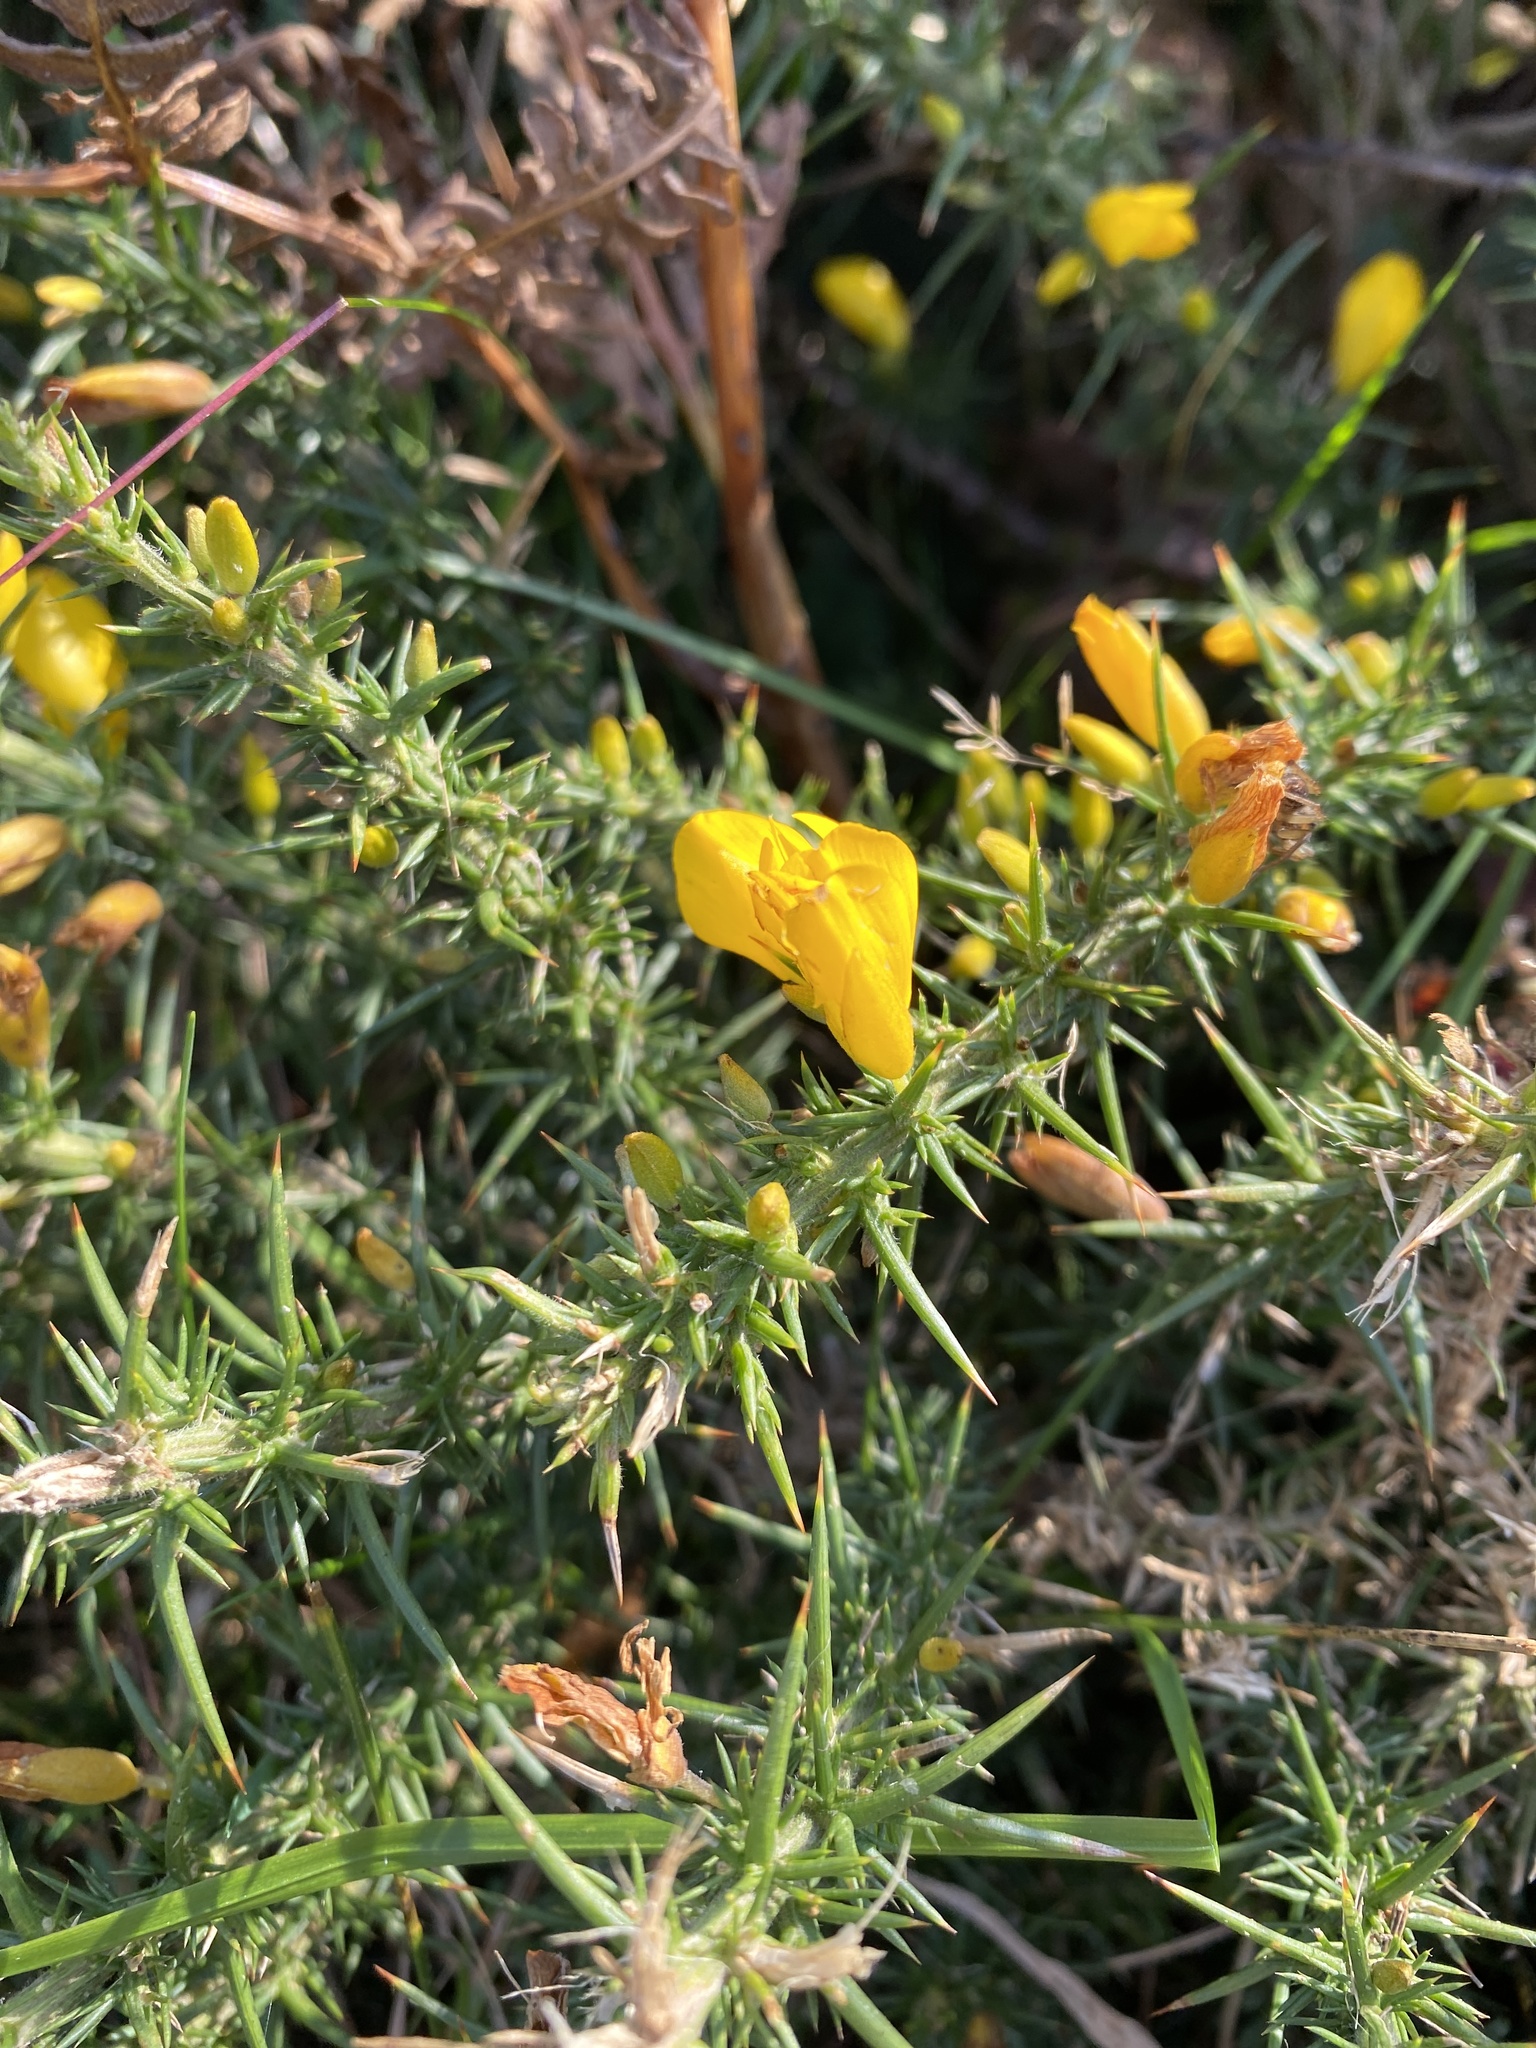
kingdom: Plantae
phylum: Tracheophyta
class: Magnoliopsida
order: Fabales
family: Fabaceae
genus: Ulex
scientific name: Ulex europaeus
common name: Common gorse
